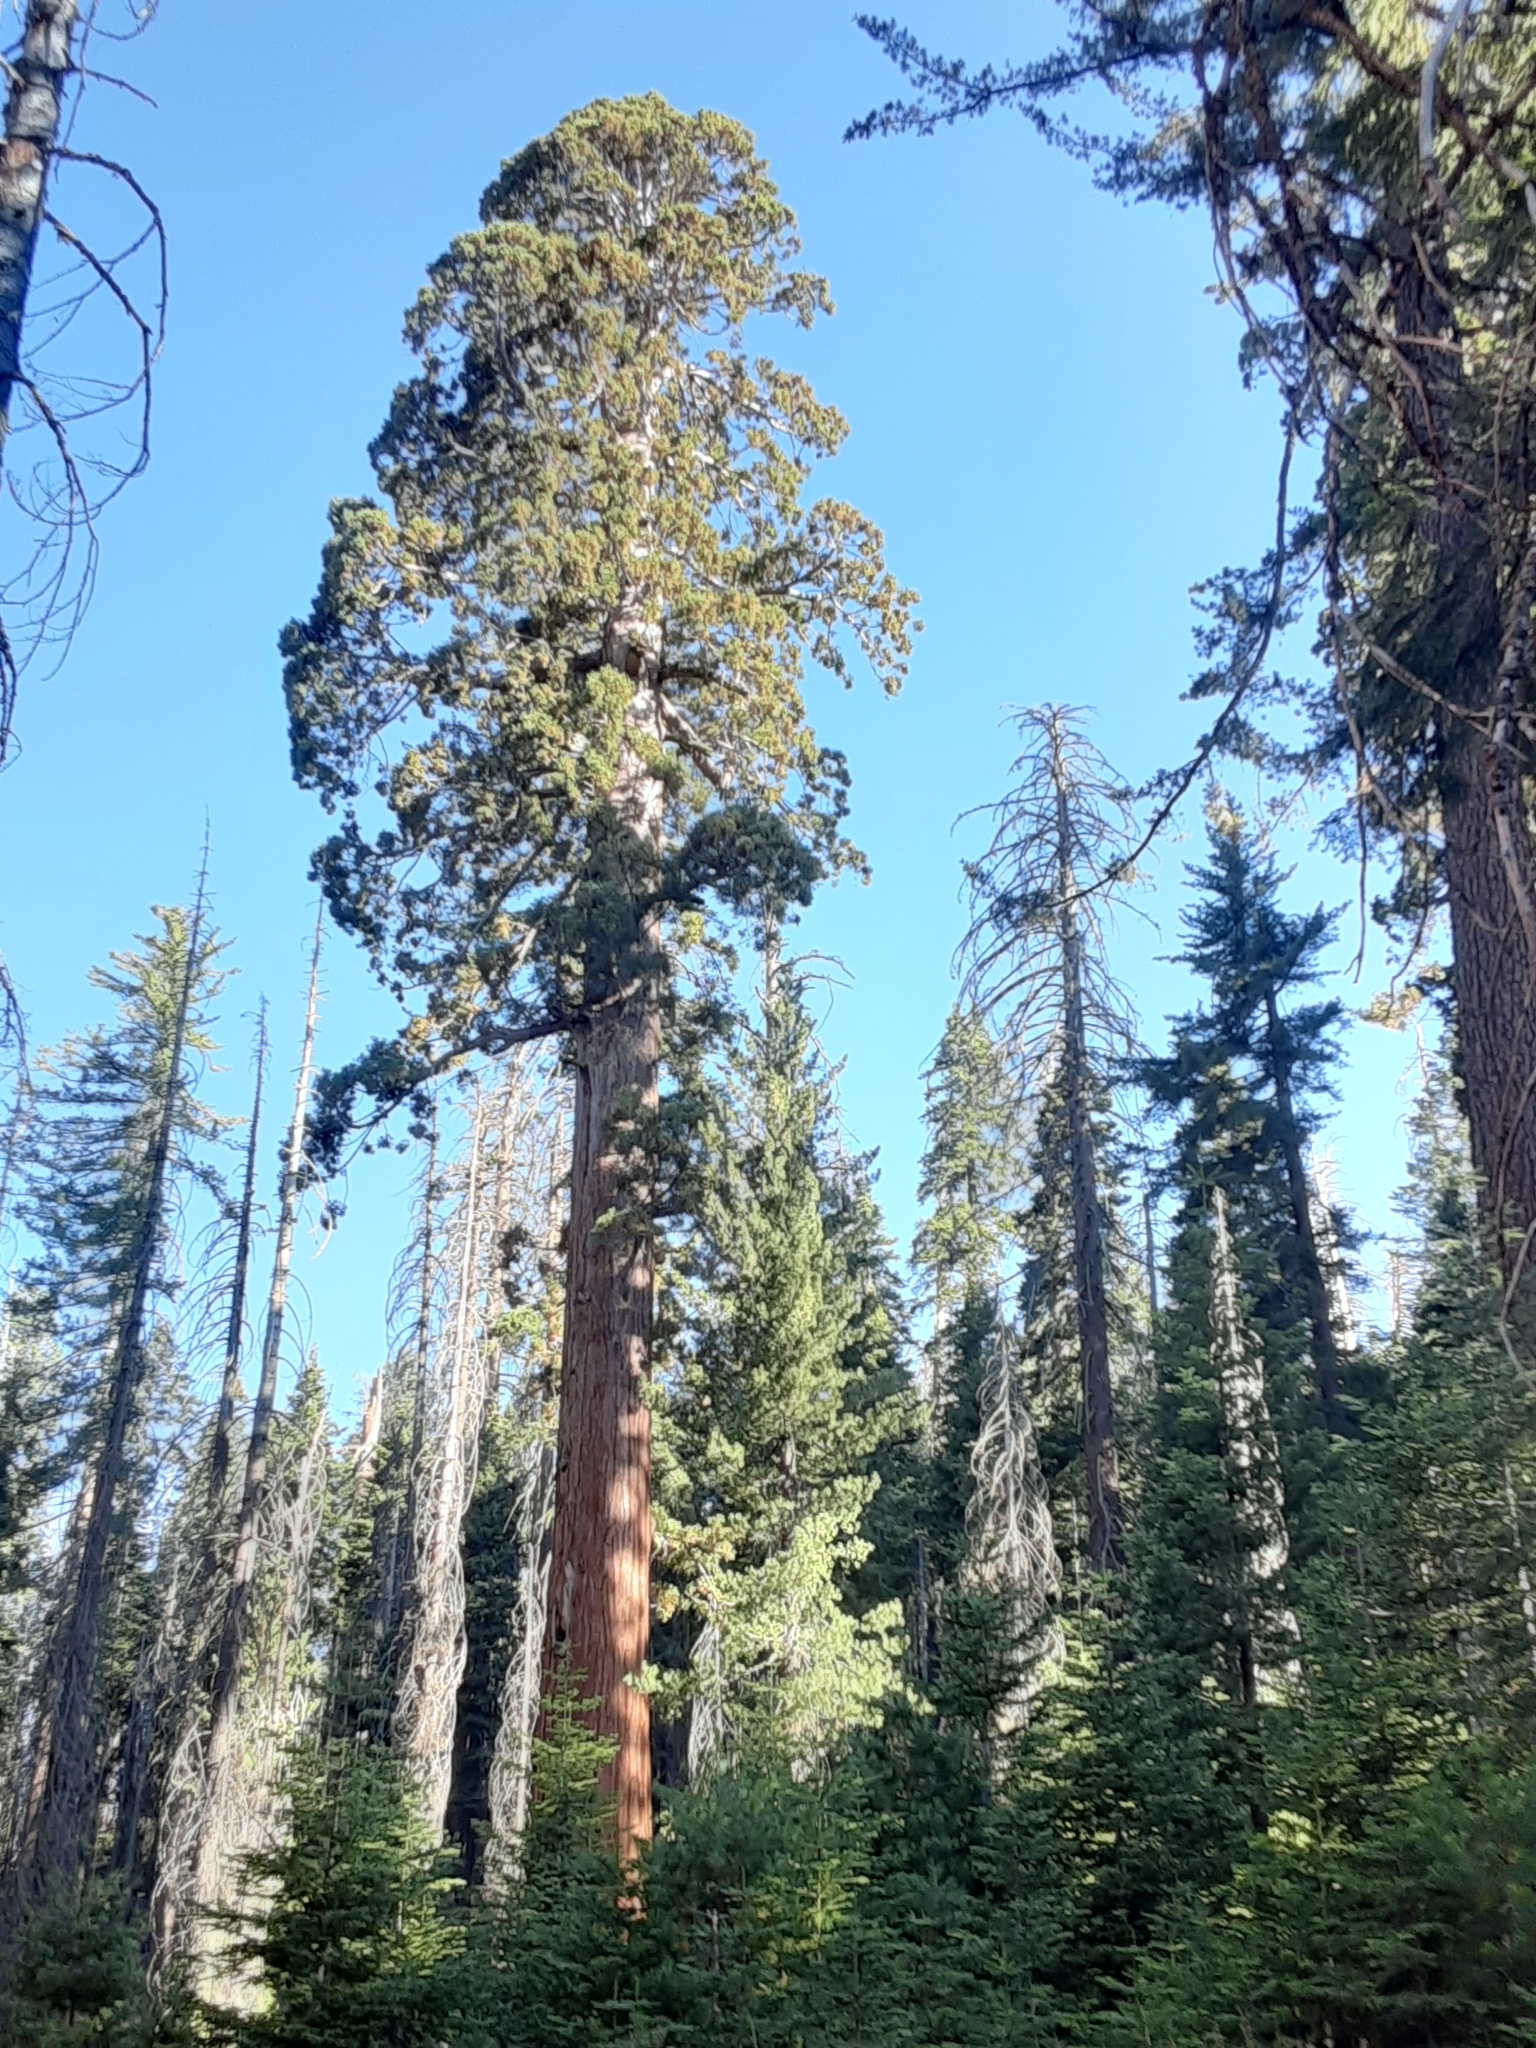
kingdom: Plantae
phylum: Tracheophyta
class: Pinopsida
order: Pinales
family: Cupressaceae
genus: Sequoiadendron
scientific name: Sequoiadendron giganteum
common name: Wellingtonia
